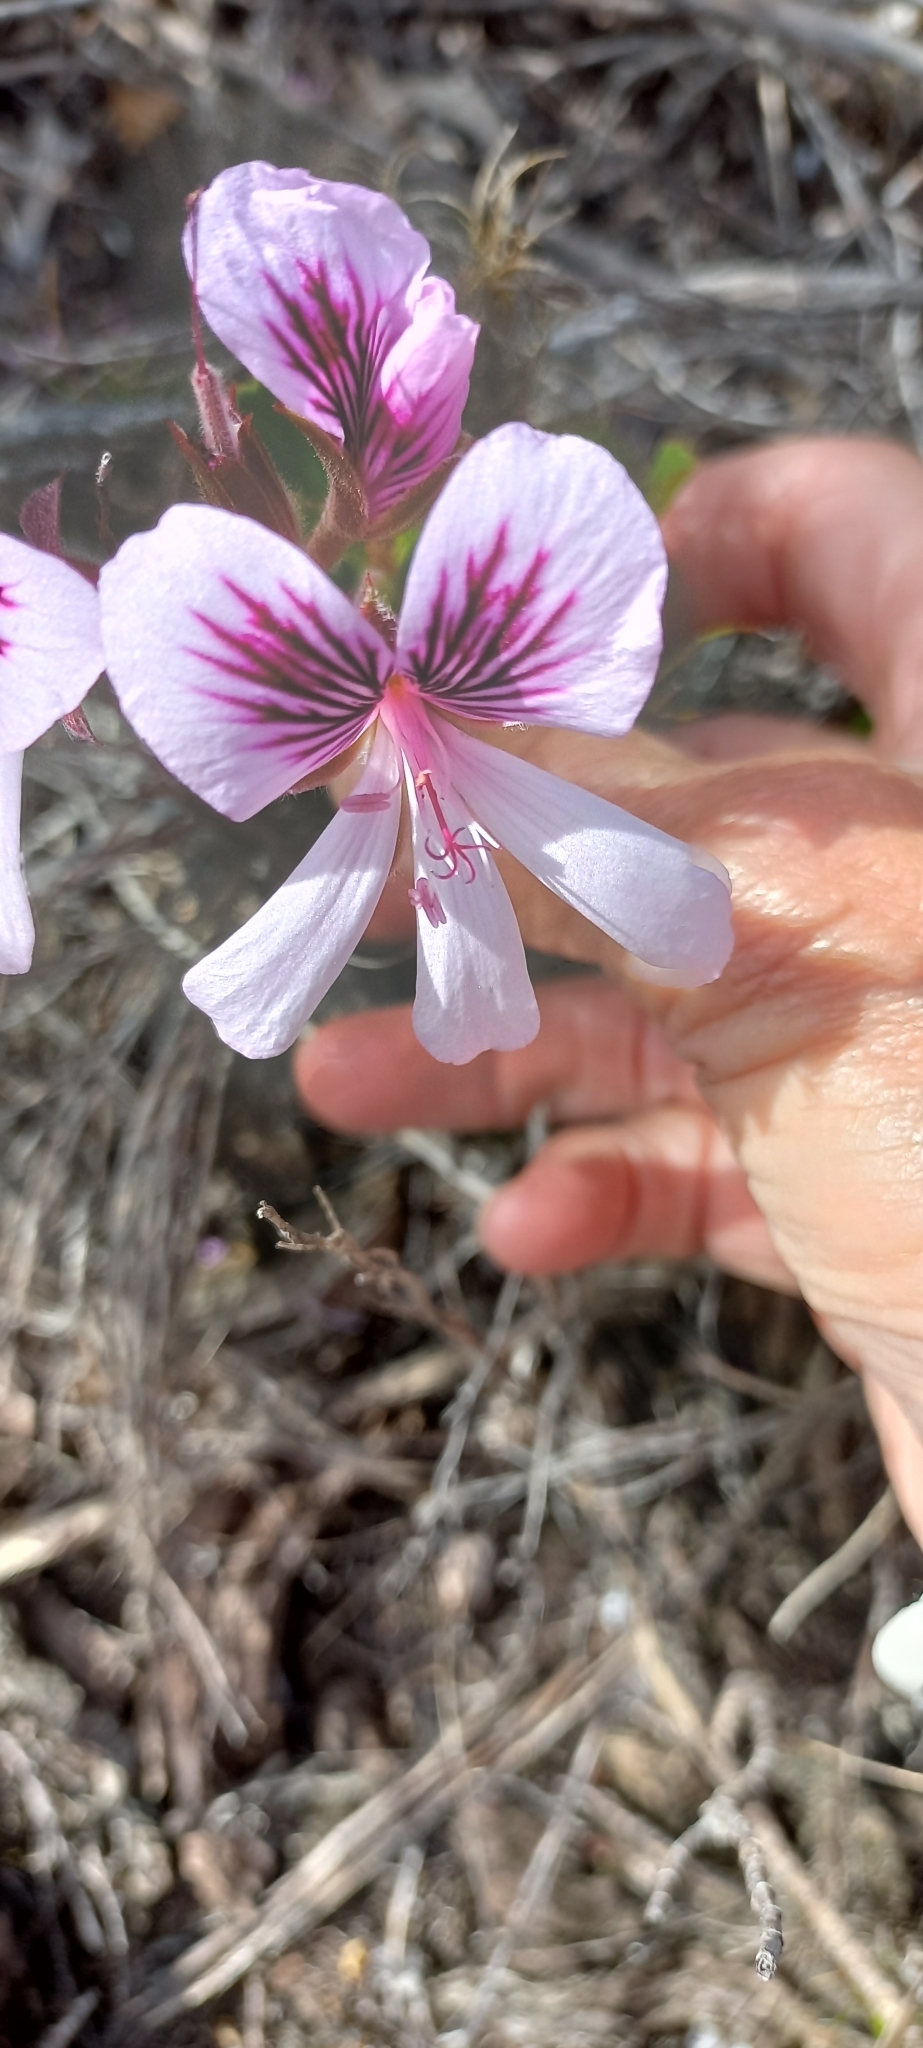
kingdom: Plantae
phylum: Tracheophyta
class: Magnoliopsida
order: Geraniales
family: Geraniaceae
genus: Pelargonium
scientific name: Pelargonium betulinum
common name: Birch-leaf pelargonium
